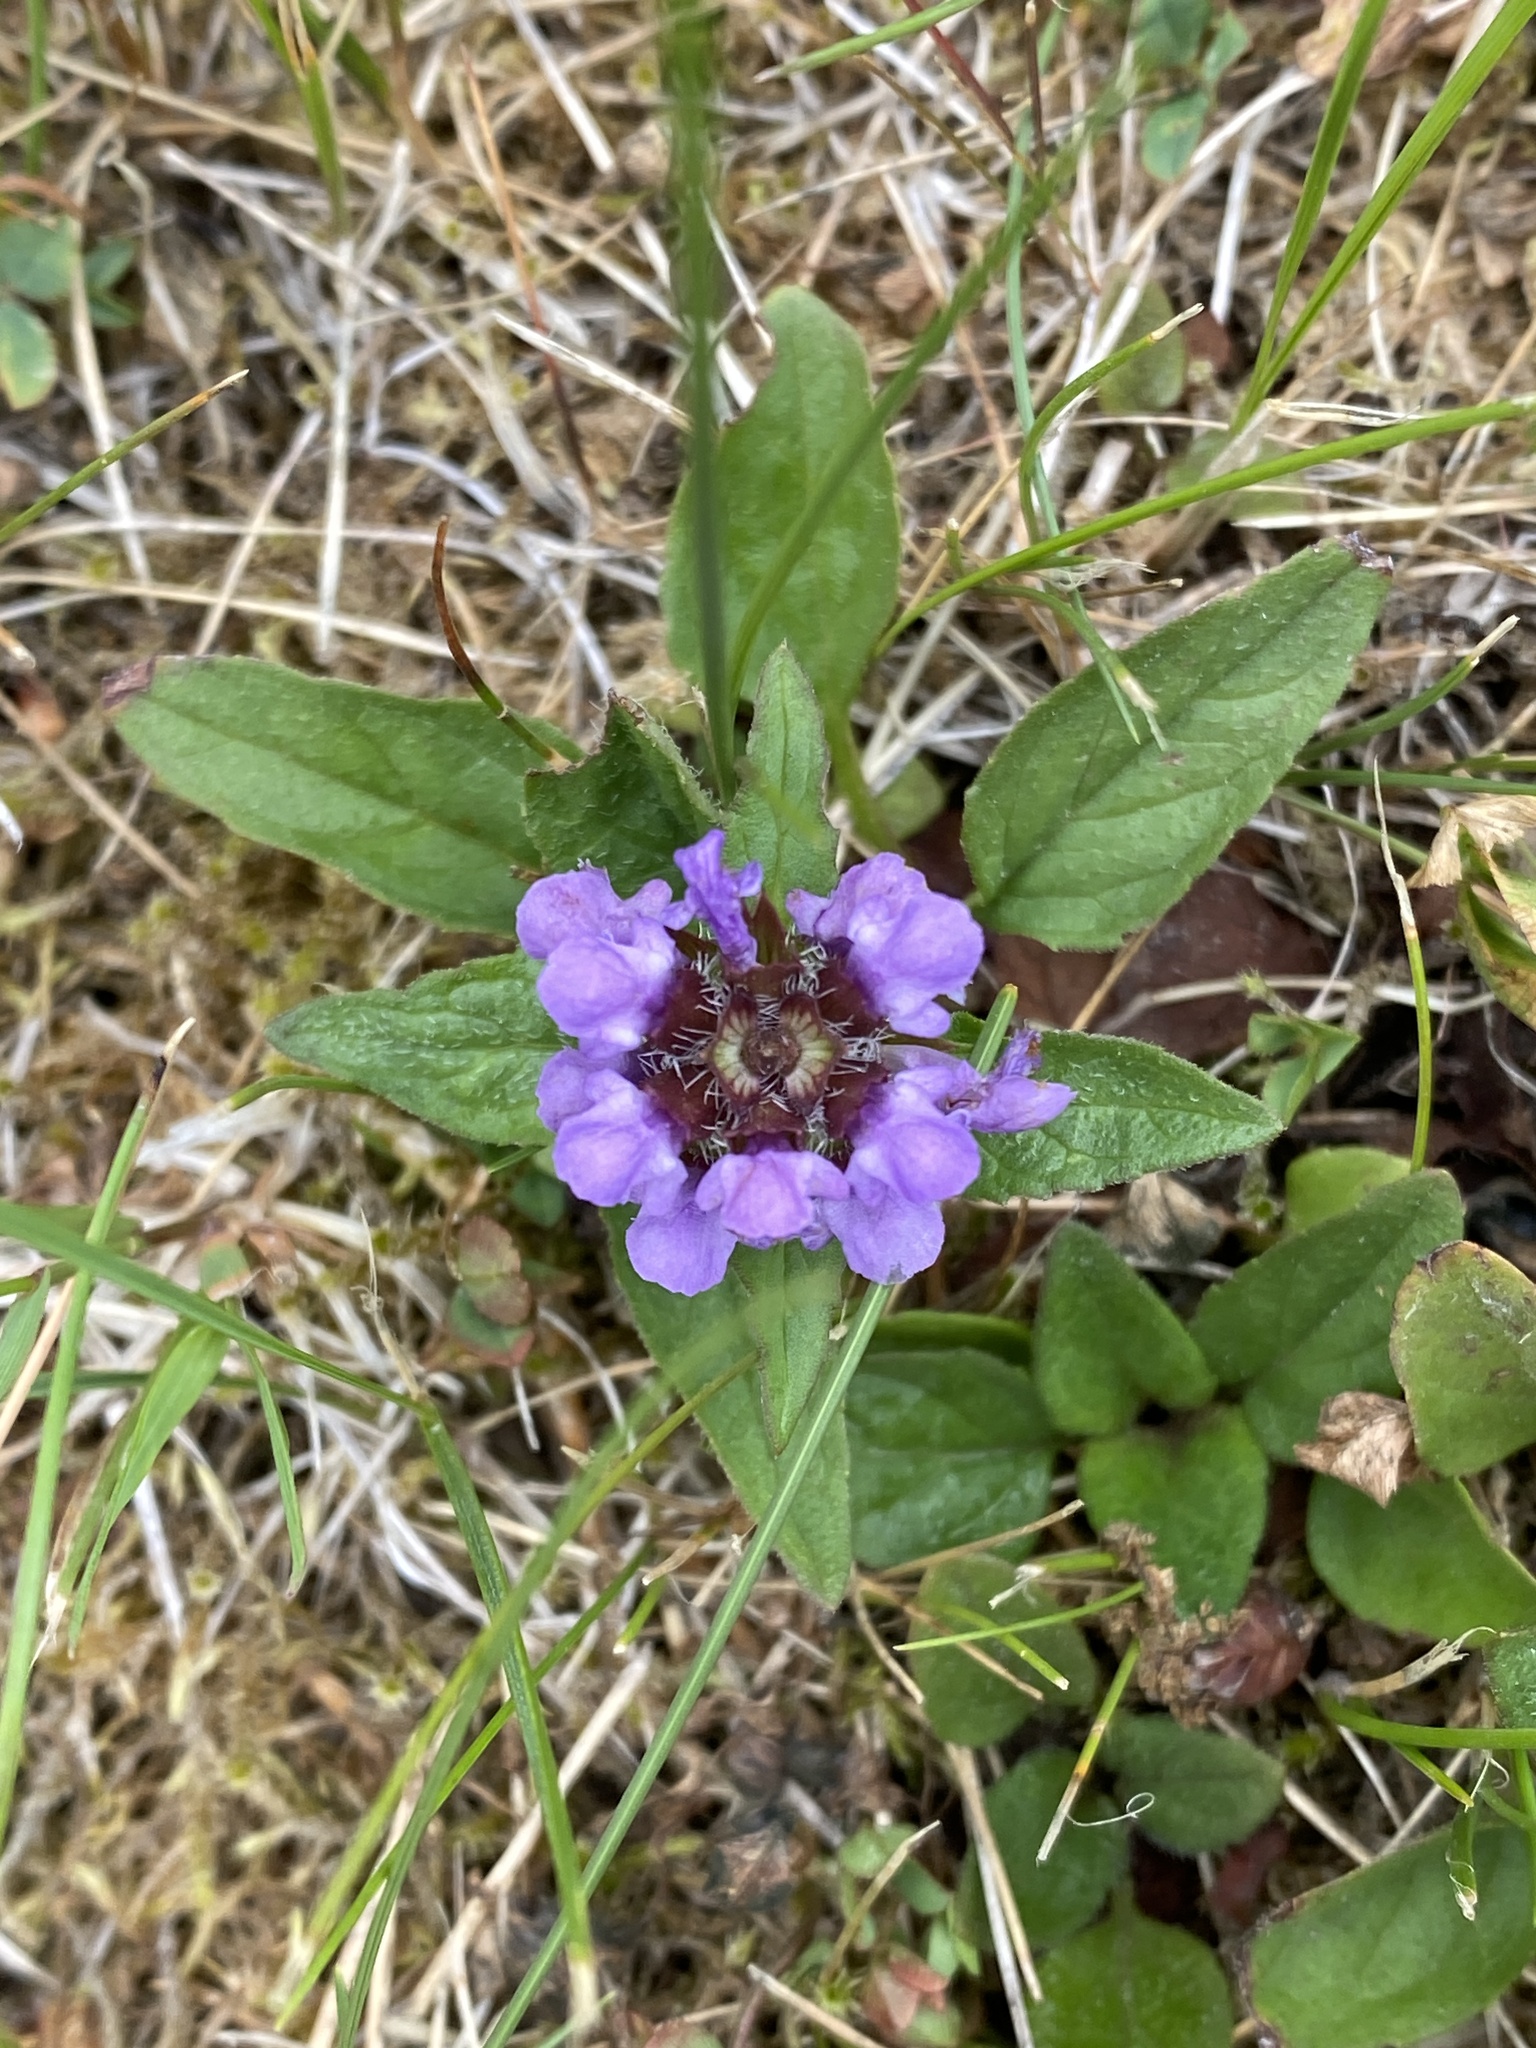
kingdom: Plantae
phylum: Tracheophyta
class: Magnoliopsida
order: Lamiales
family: Lamiaceae
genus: Prunella
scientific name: Prunella vulgaris
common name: Heal-all
